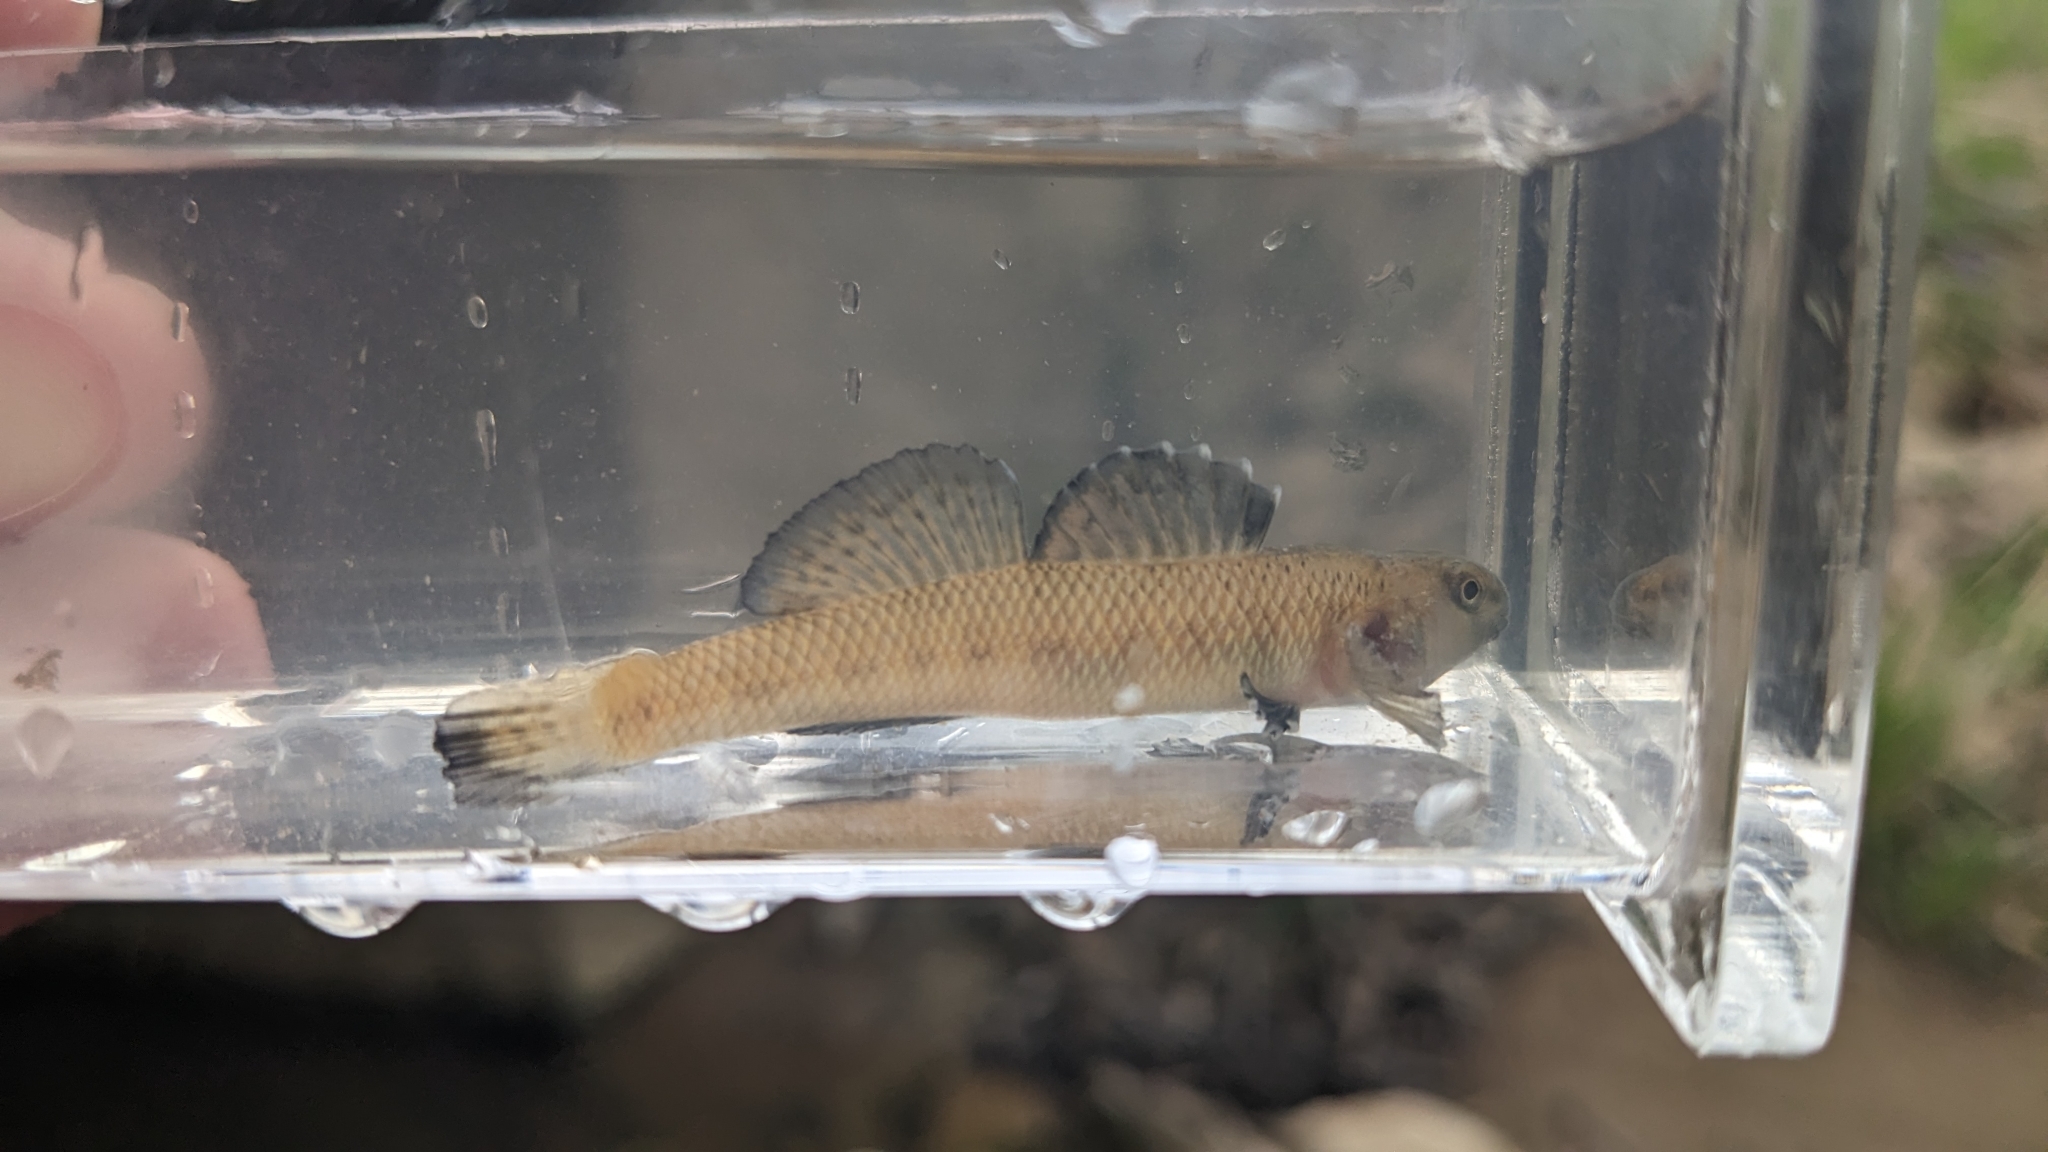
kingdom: Animalia
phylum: Chordata
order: Perciformes
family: Percidae
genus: Etheostoma
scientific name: Etheostoma nigrum
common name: Johnny darter
